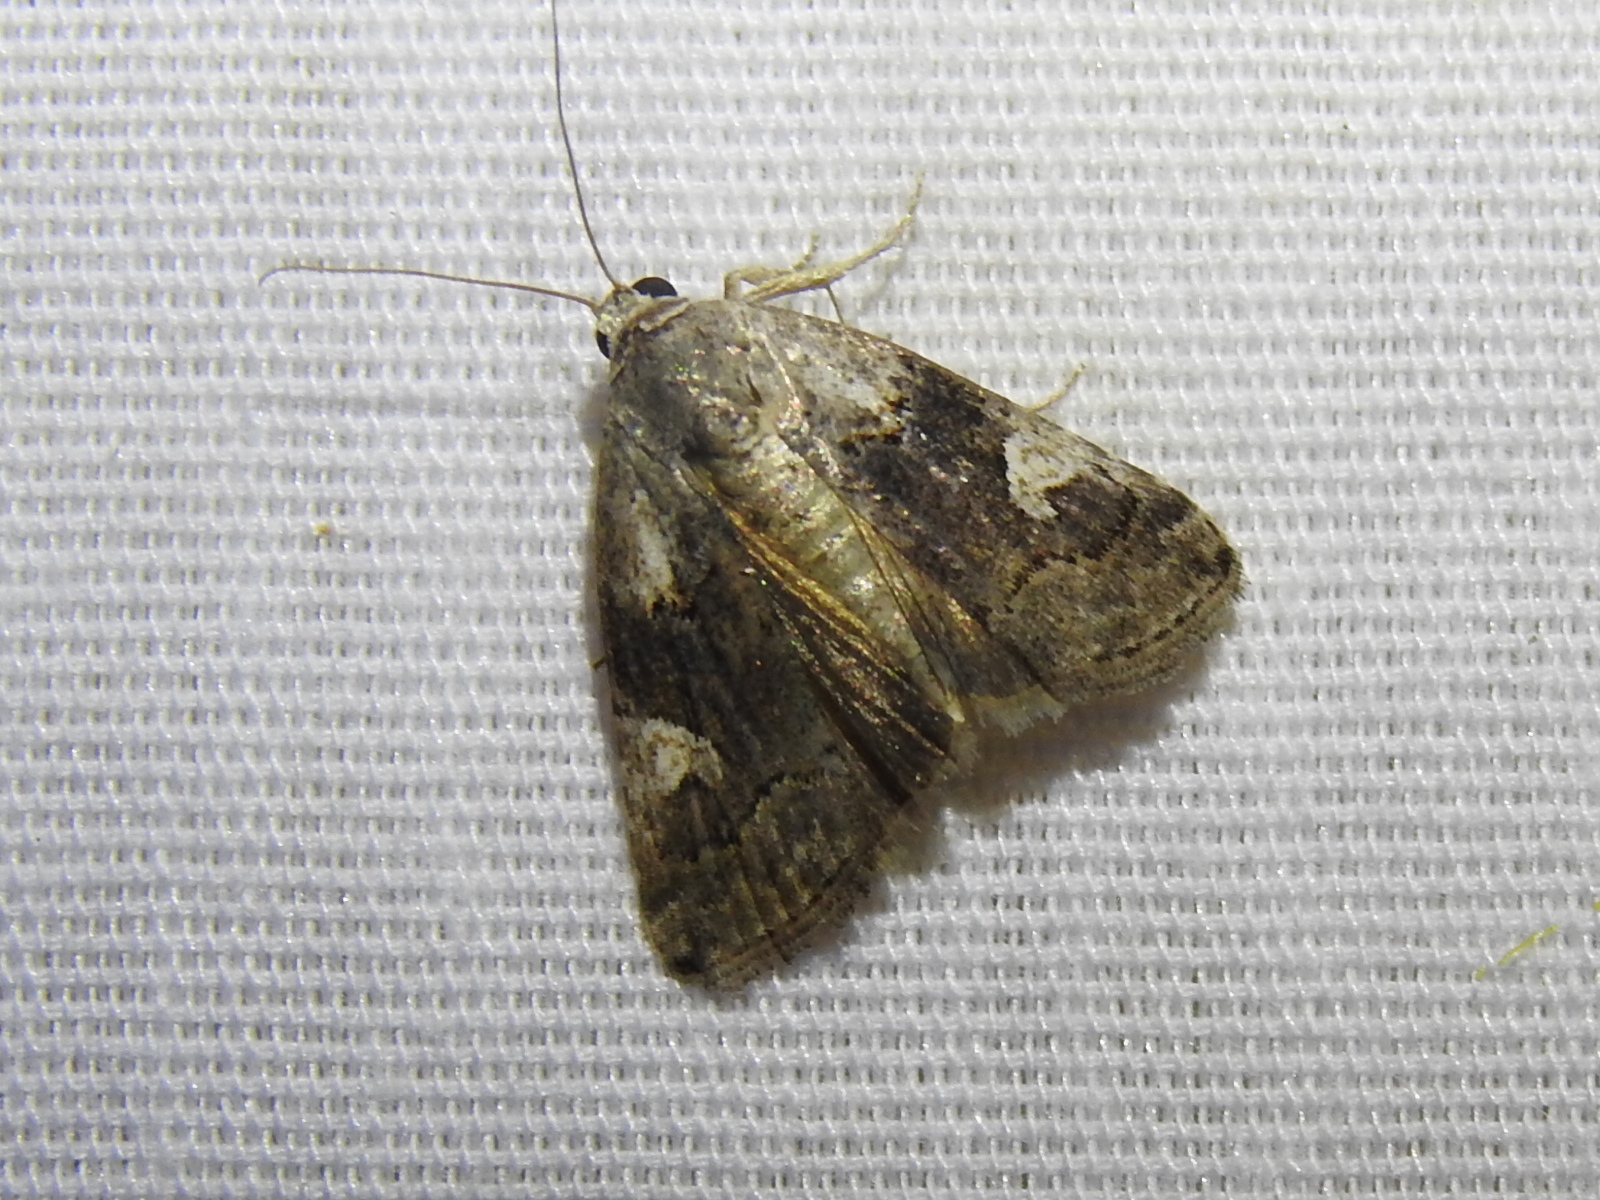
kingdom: Animalia
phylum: Arthropoda
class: Insecta
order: Lepidoptera
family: Noctuidae
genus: Metaponpneumata
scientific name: Metaponpneumata rogenhoferi
